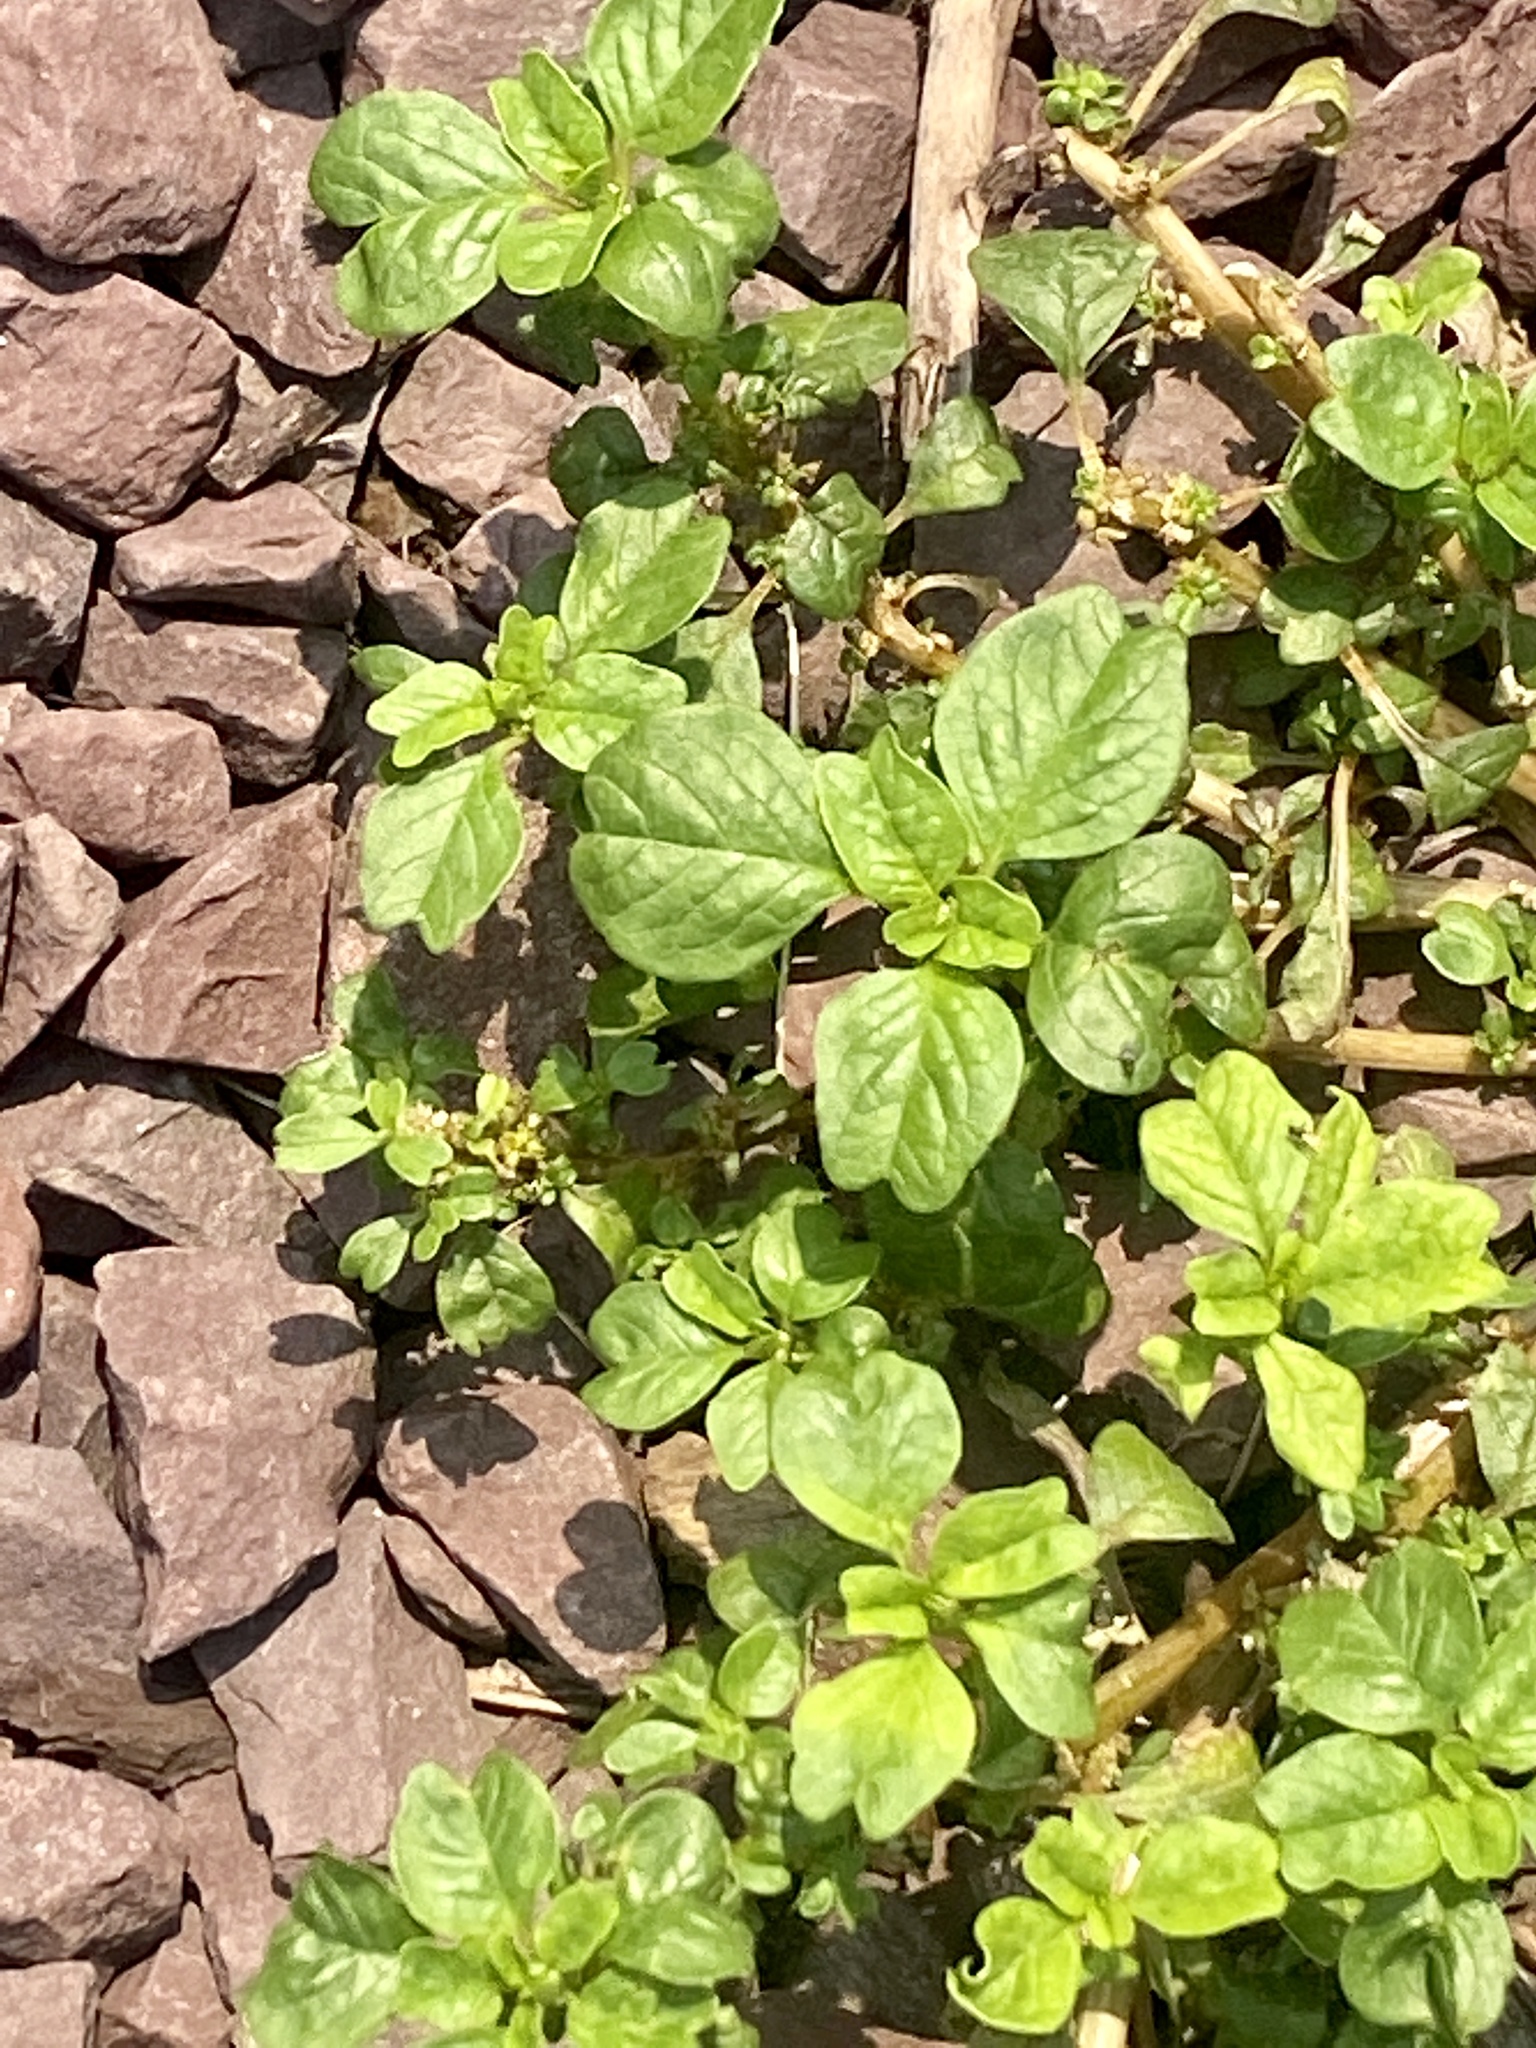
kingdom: Plantae
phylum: Tracheophyta
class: Magnoliopsida
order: Caryophyllales
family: Amaranthaceae
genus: Amaranthus
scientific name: Amaranthus blitum
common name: Purple amaranth
